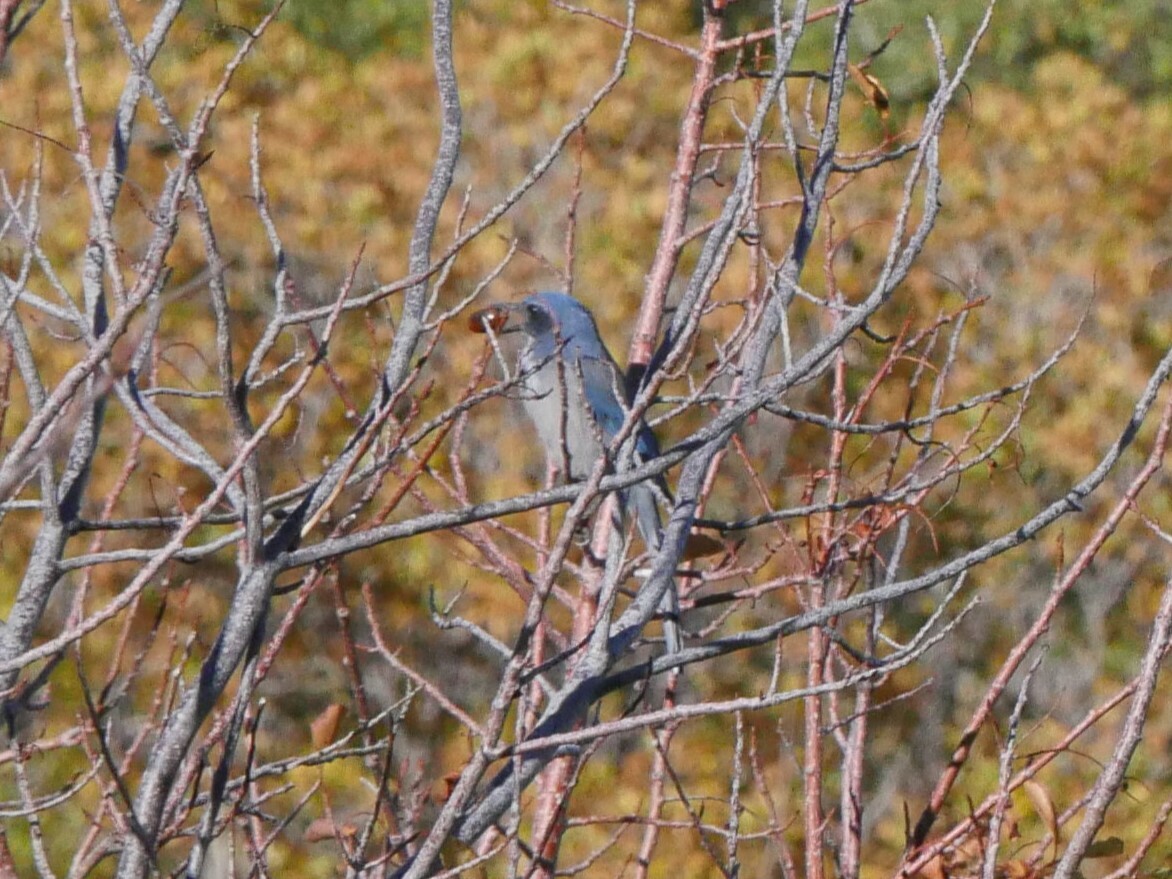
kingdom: Animalia
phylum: Chordata
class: Aves
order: Passeriformes
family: Corvidae
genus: Aphelocoma
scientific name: Aphelocoma woodhouseii
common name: Woodhouse's scrub-jay
